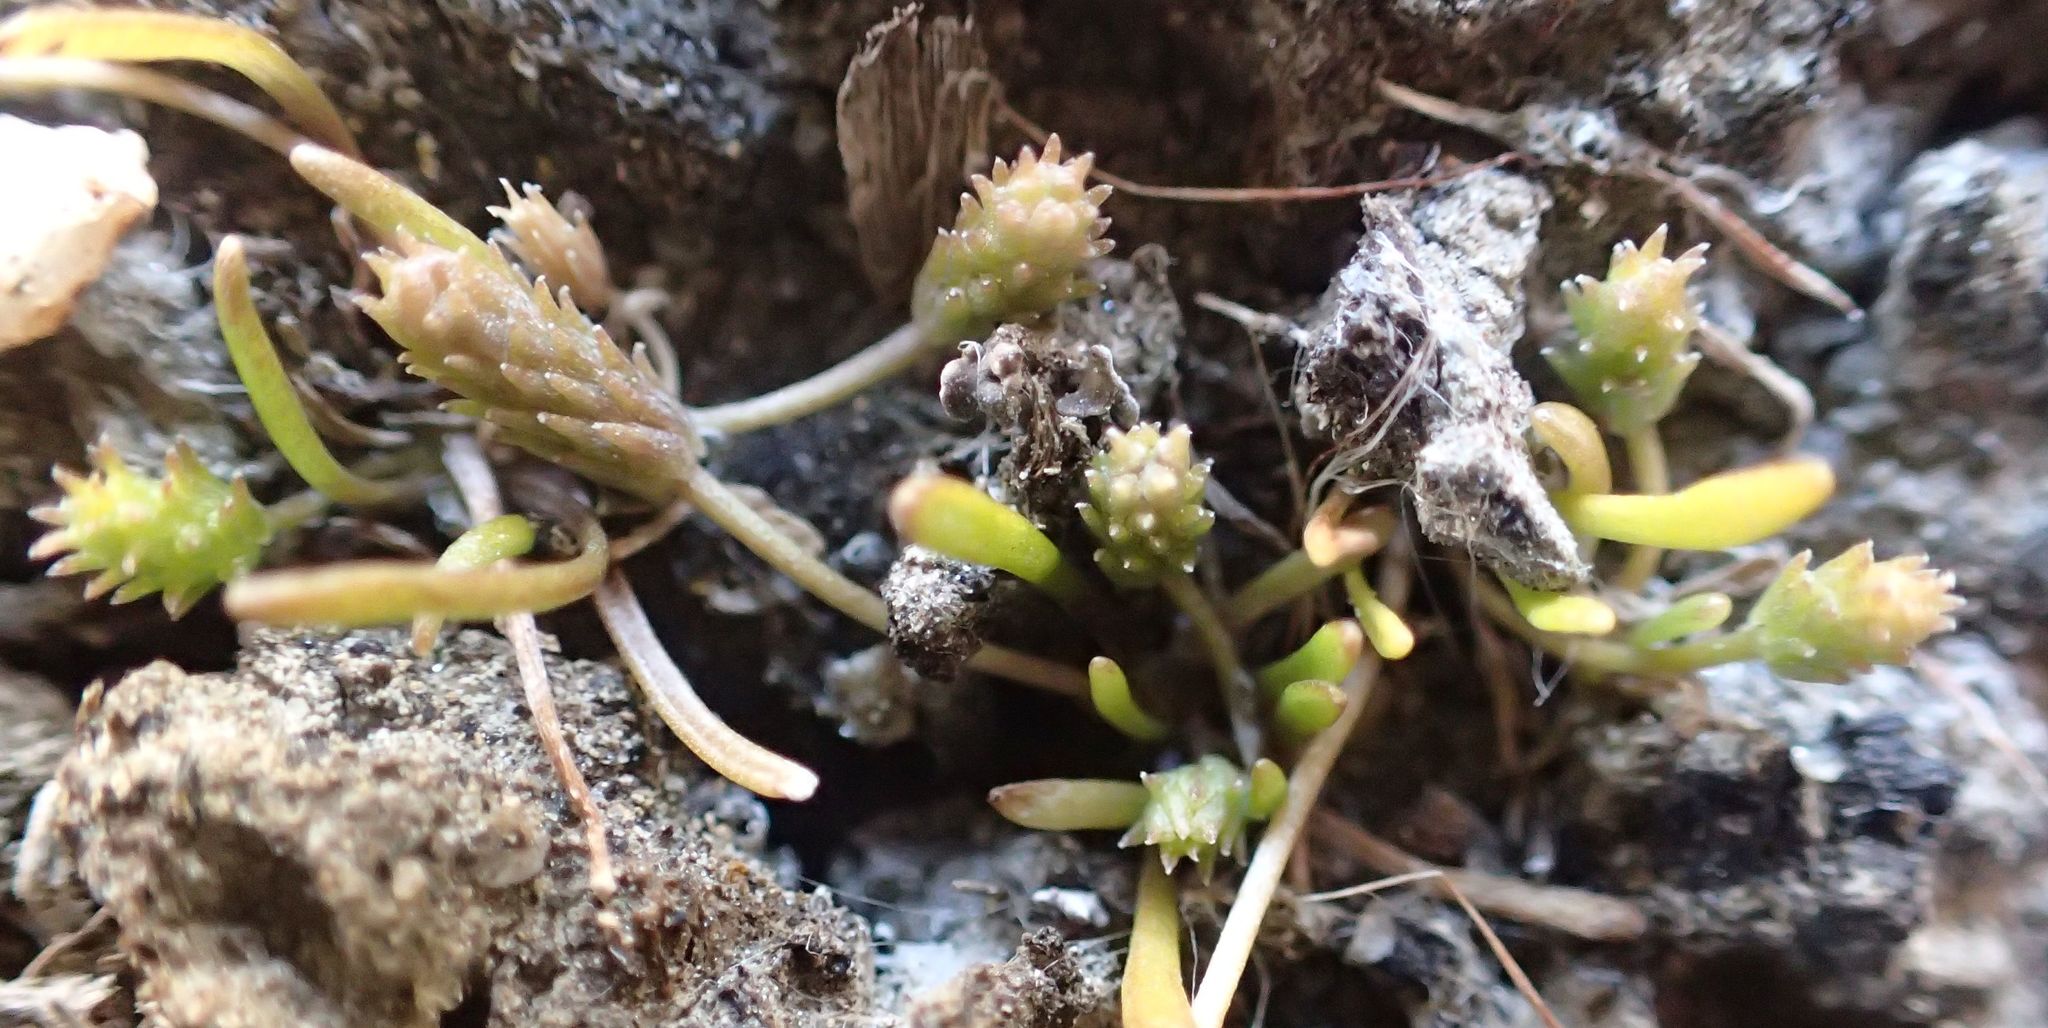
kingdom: Plantae
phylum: Tracheophyta
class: Magnoliopsida
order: Ranunculales
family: Ranunculaceae
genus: Myosurus
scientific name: Myosurus minimus
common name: Mousetail
